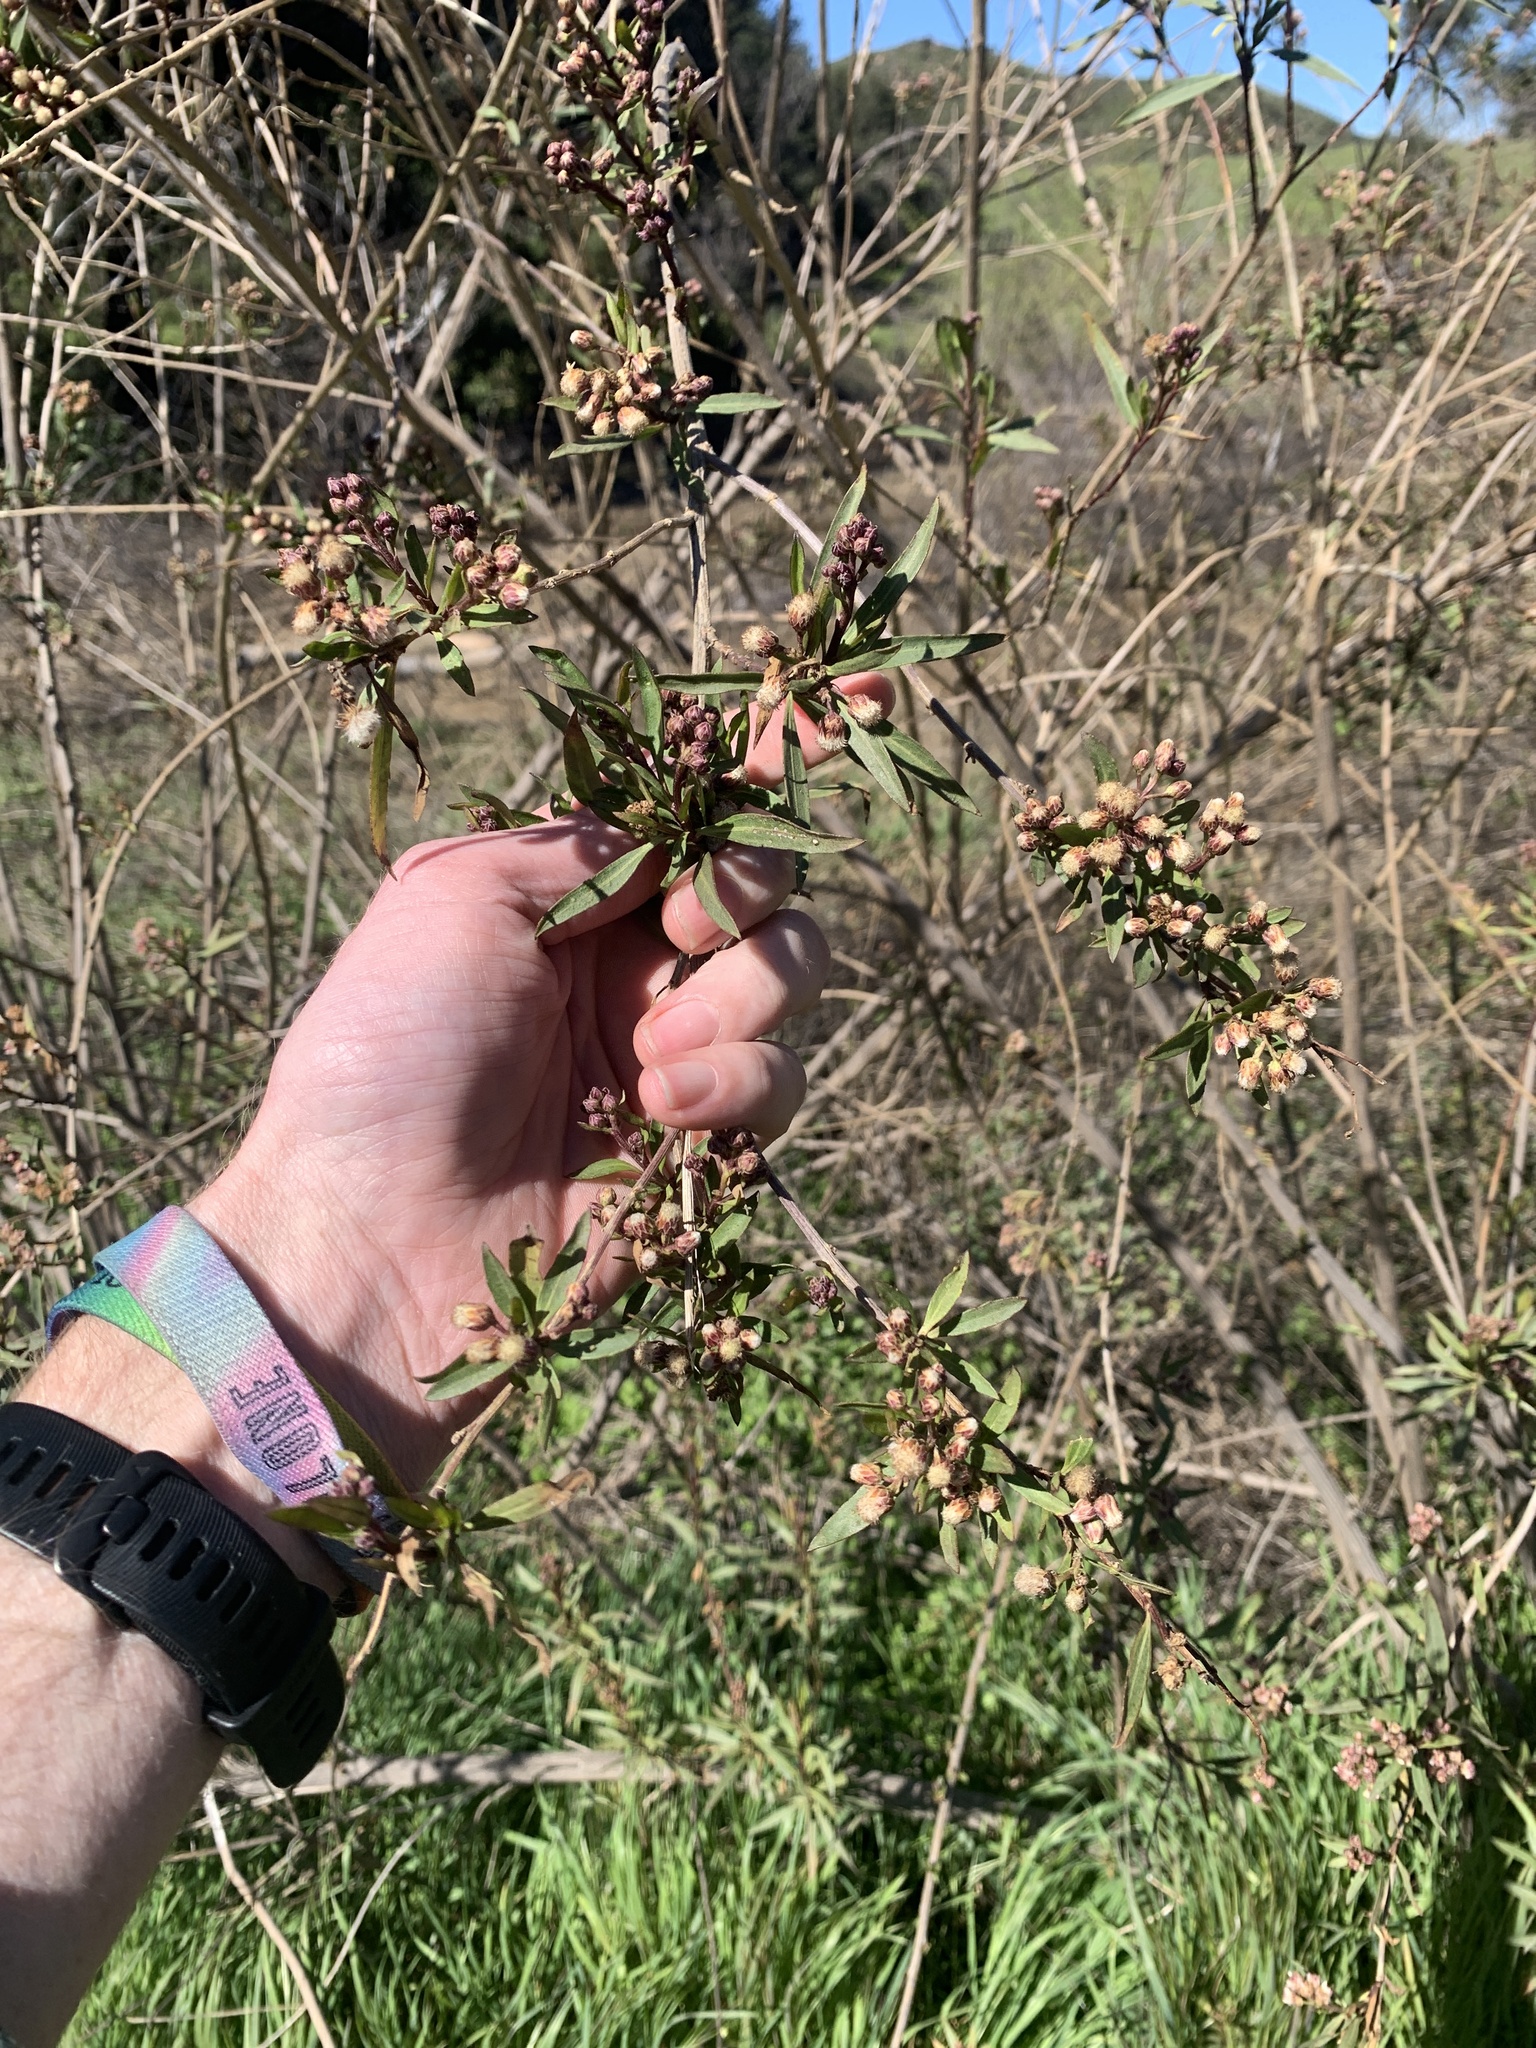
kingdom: Plantae
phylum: Tracheophyta
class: Magnoliopsida
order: Asterales
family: Asteraceae
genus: Baccharis
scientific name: Baccharis salicifolia
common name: Sticky baccharis
